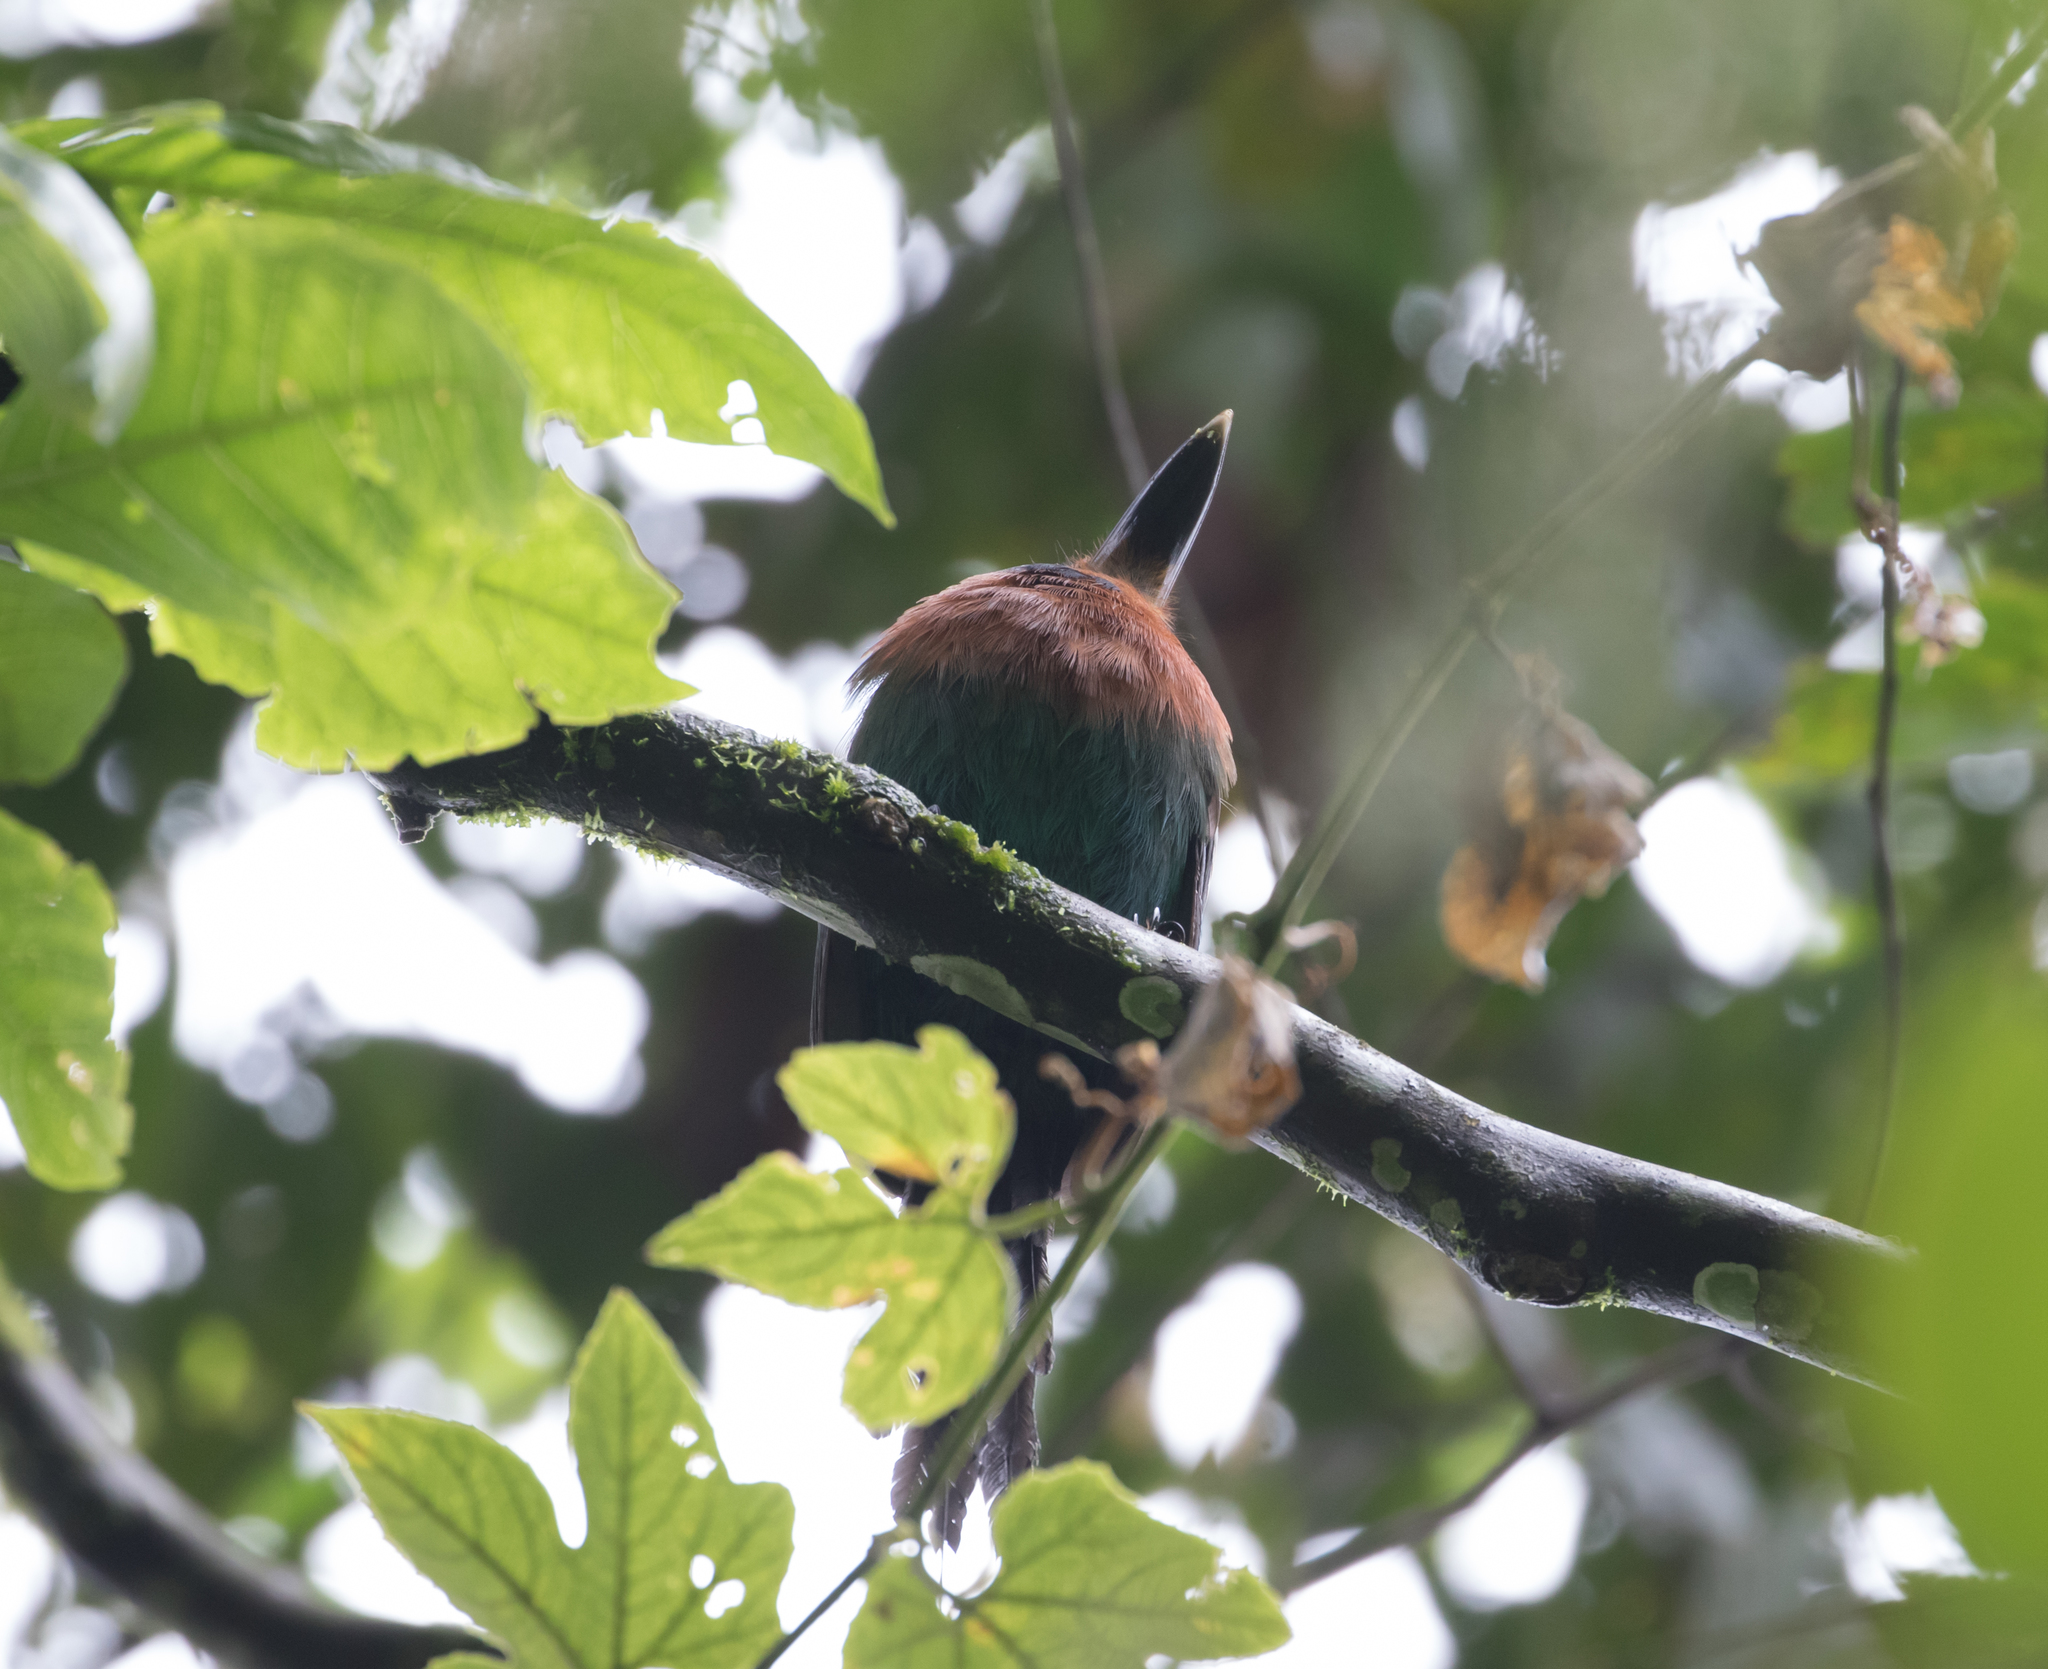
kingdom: Animalia
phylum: Chordata
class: Aves
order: Coraciiformes
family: Momotidae
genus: Electron
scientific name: Electron platyrhynchum
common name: Broad-billed motmot
